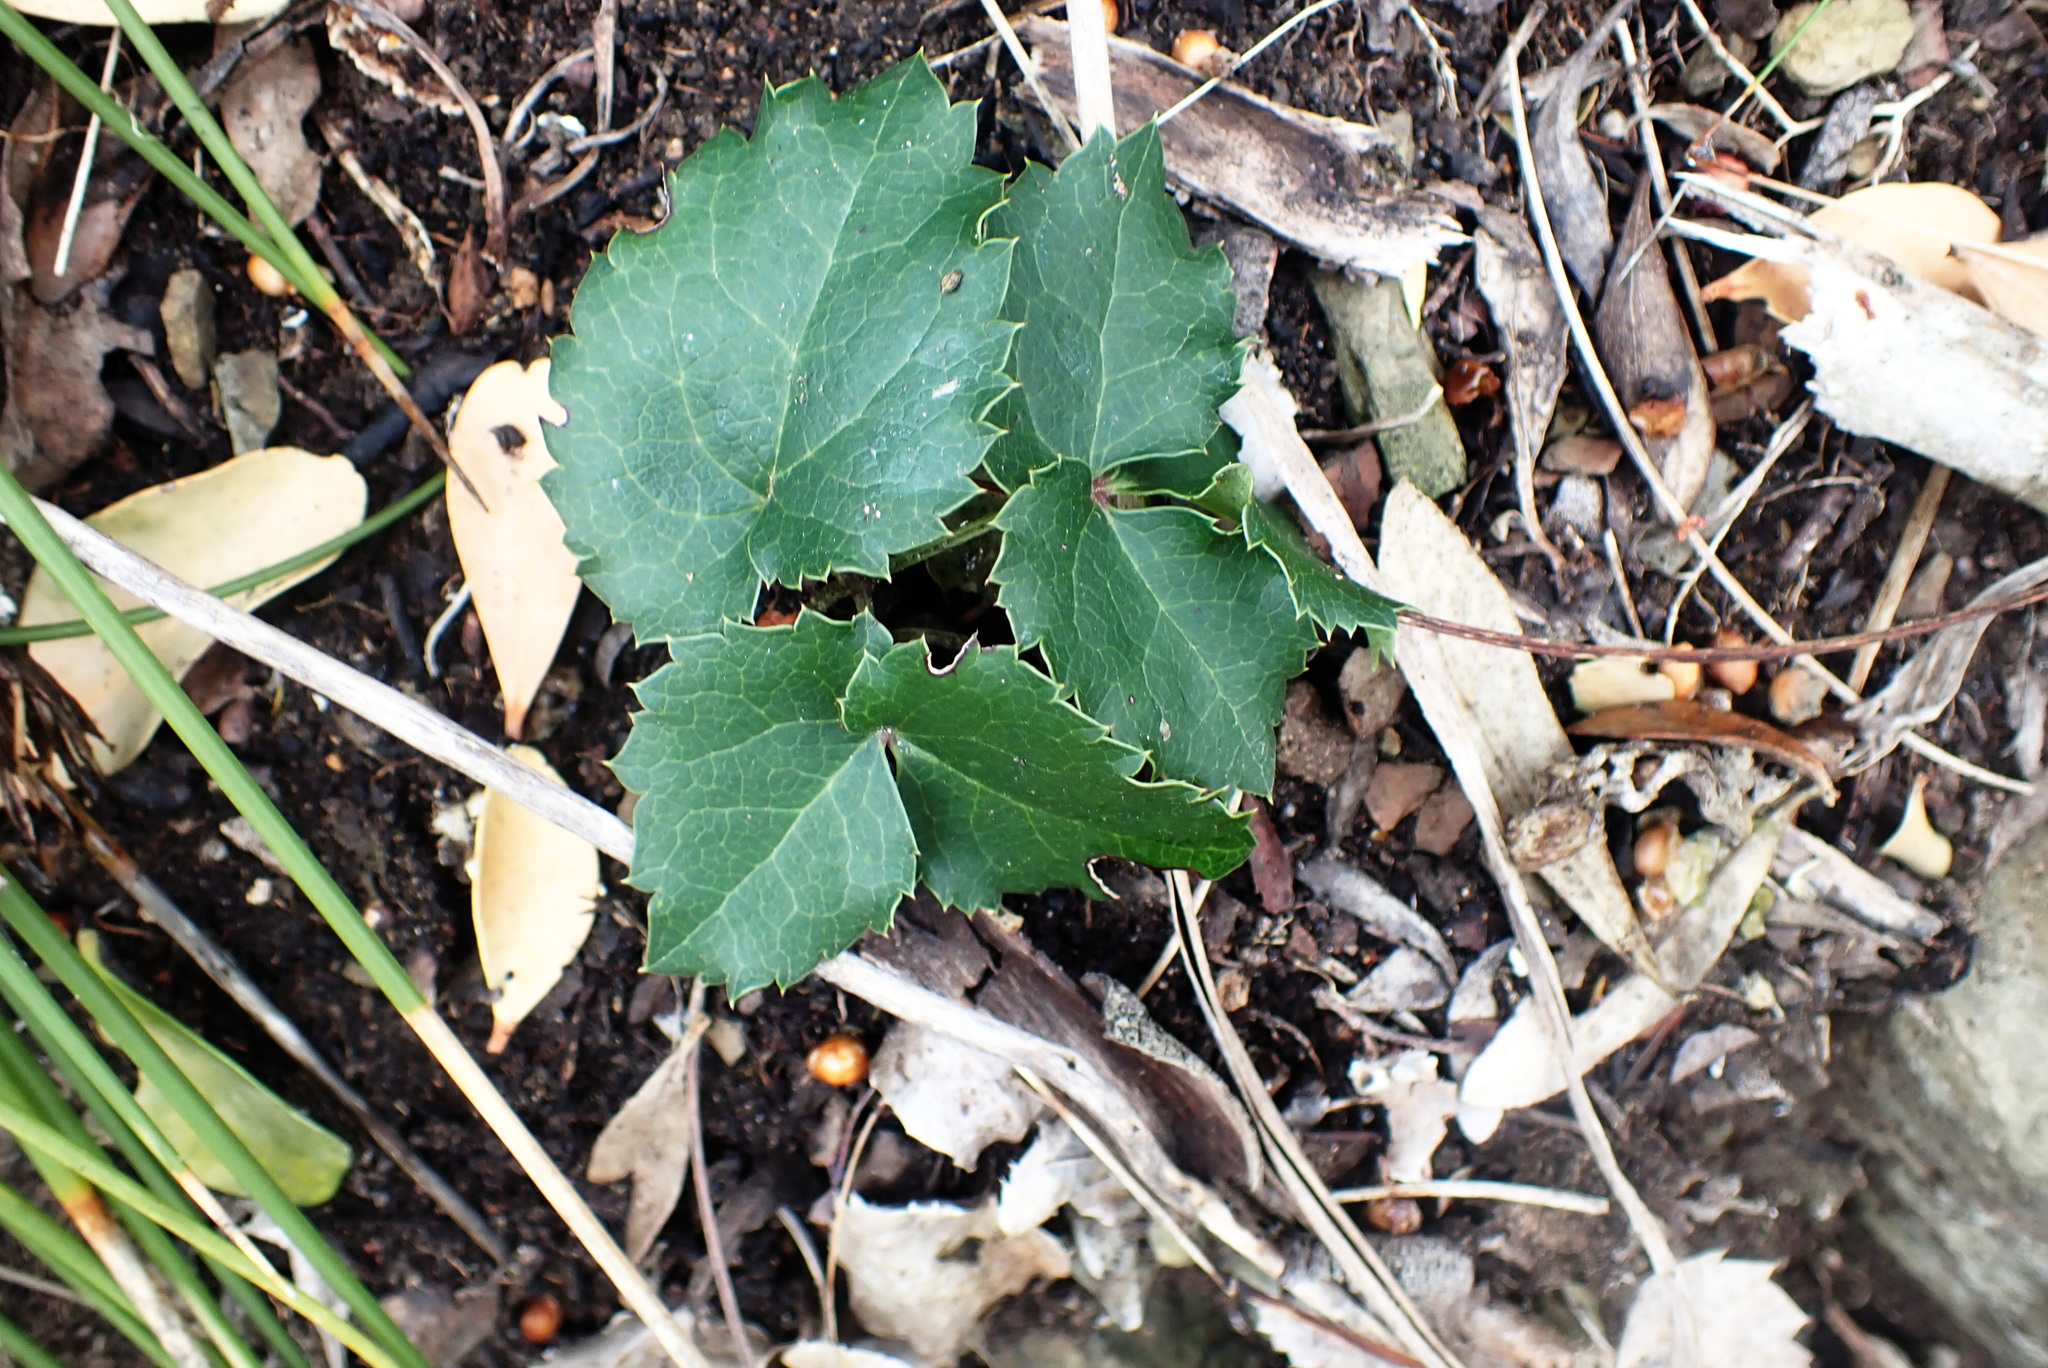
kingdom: Plantae
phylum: Tracheophyta
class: Magnoliopsida
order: Ranunculales
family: Ranunculaceae
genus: Knowltonia
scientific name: Knowltonia vesicatoria
